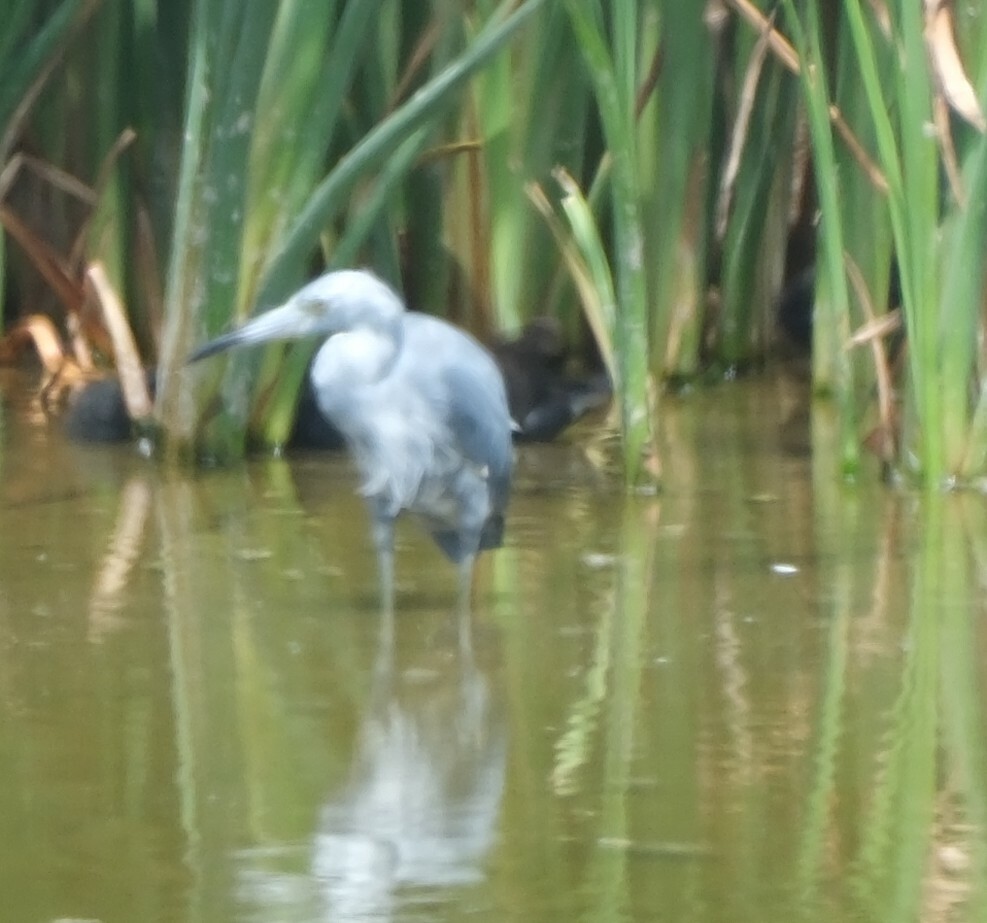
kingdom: Animalia
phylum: Chordata
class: Aves
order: Pelecaniformes
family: Ardeidae
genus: Egretta
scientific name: Egretta caerulea
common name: Little blue heron
